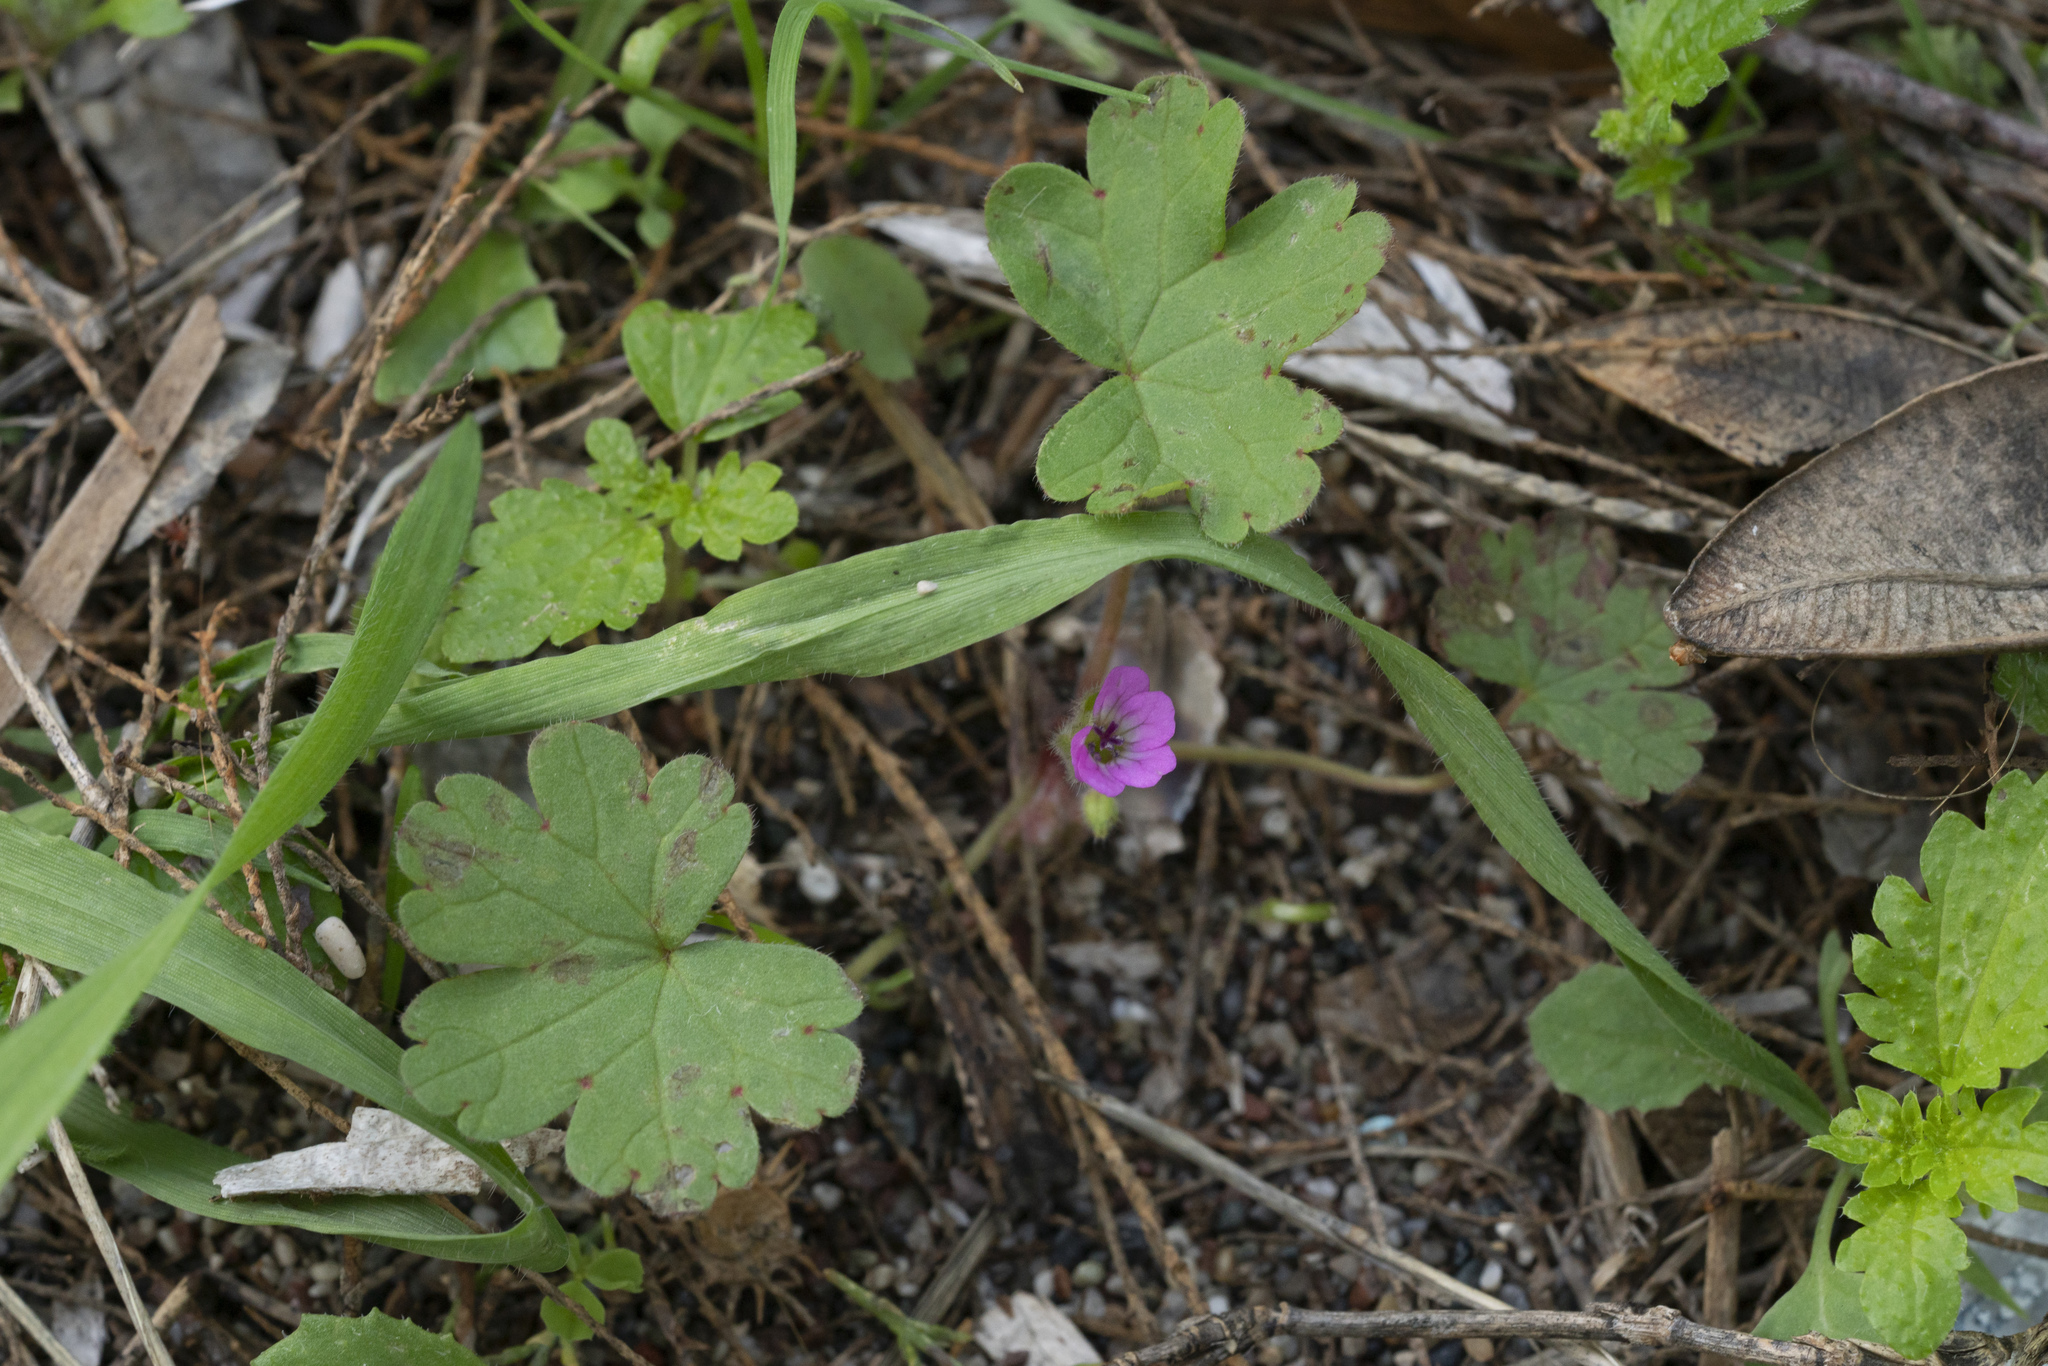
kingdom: Plantae
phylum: Tracheophyta
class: Magnoliopsida
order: Geraniales
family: Geraniaceae
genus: Geranium
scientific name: Geranium rotundifolium
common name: Round-leaved crane's-bill
